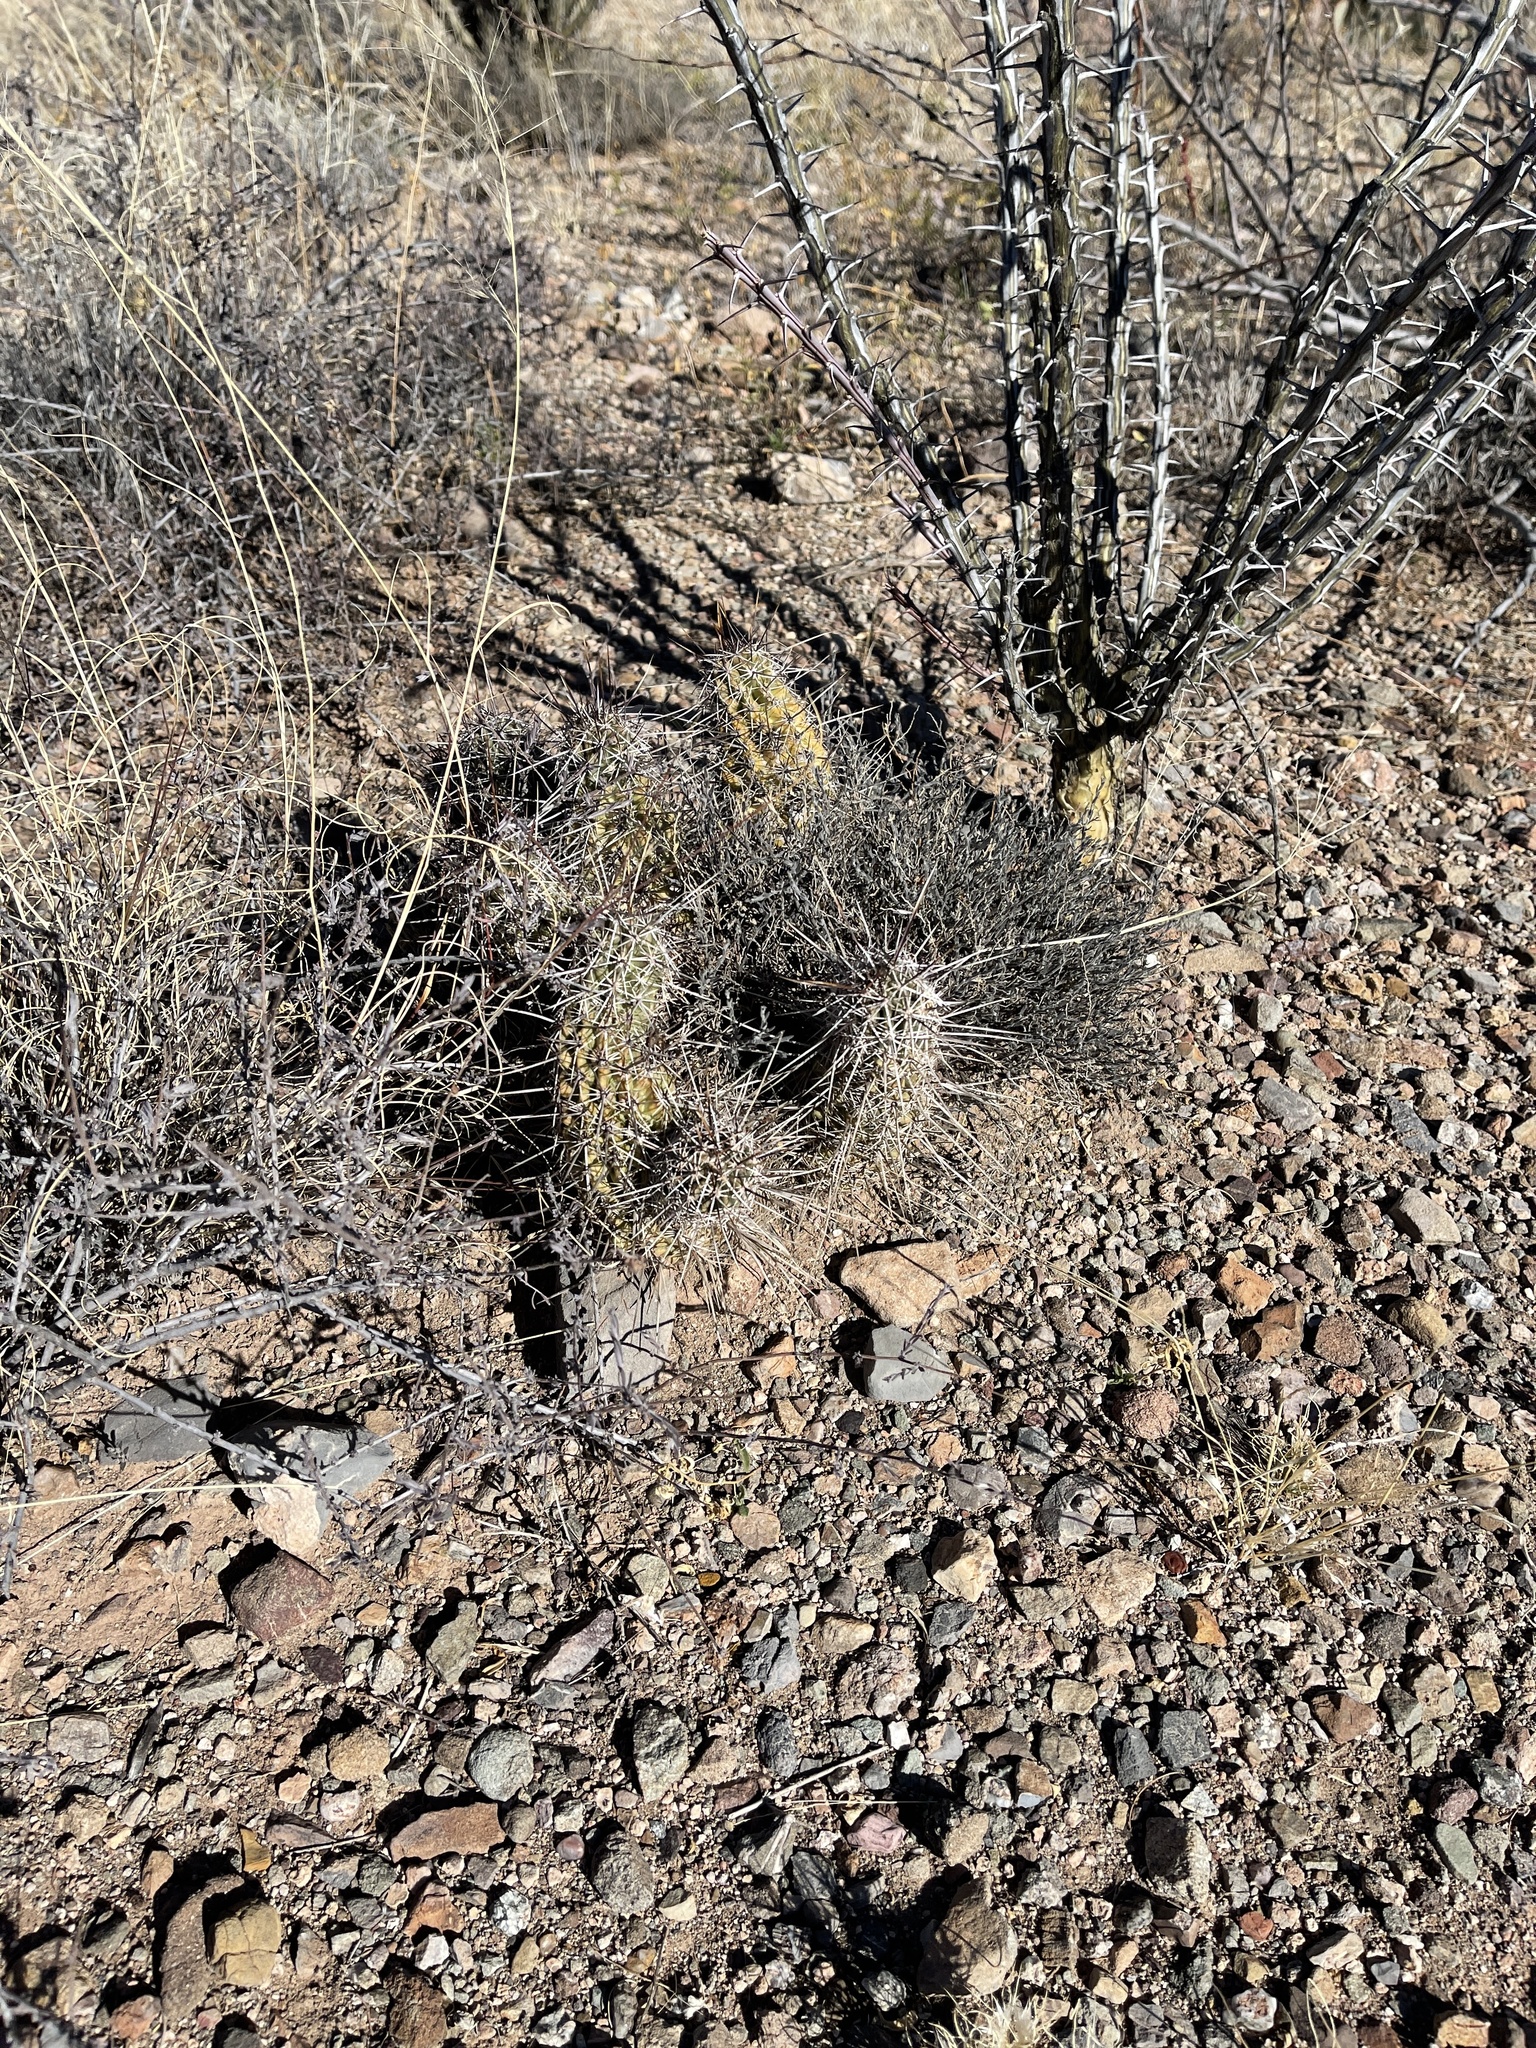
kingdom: Plantae
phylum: Tracheophyta
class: Magnoliopsida
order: Caryophyllales
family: Cactaceae
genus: Echinocereus
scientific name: Echinocereus fasciculatus
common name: Bundle hedgehog
